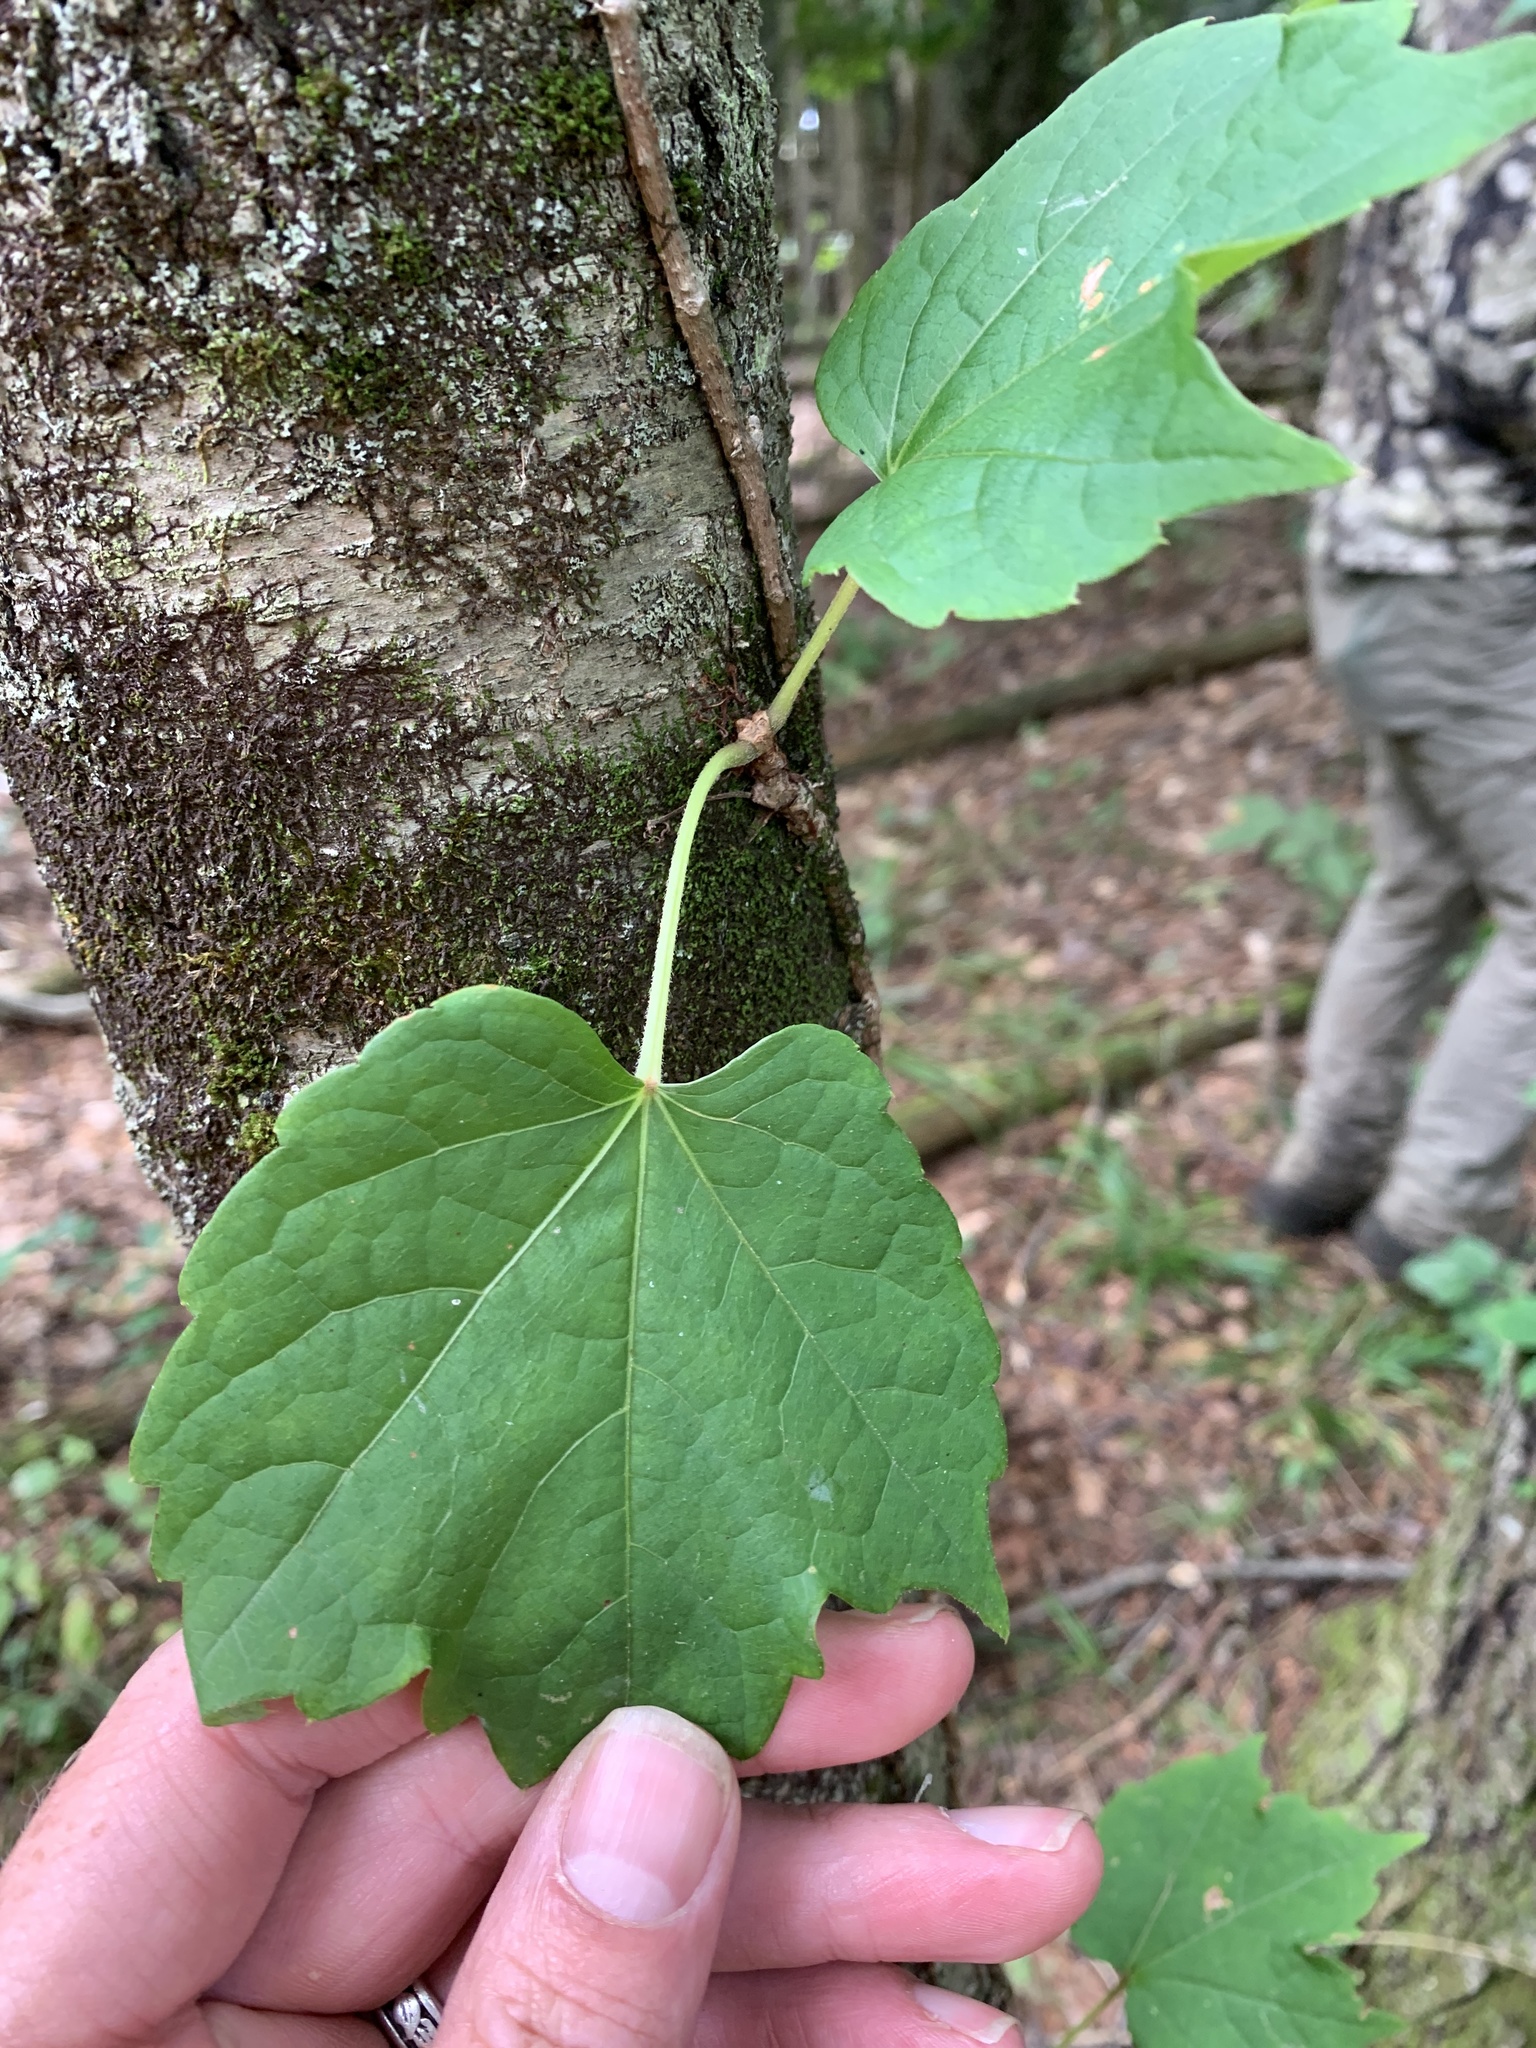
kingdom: Plantae
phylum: Tracheophyta
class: Magnoliopsida
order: Vitales
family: Vitaceae
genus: Parthenocissus
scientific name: Parthenocissus tricuspidata
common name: Boston ivy
